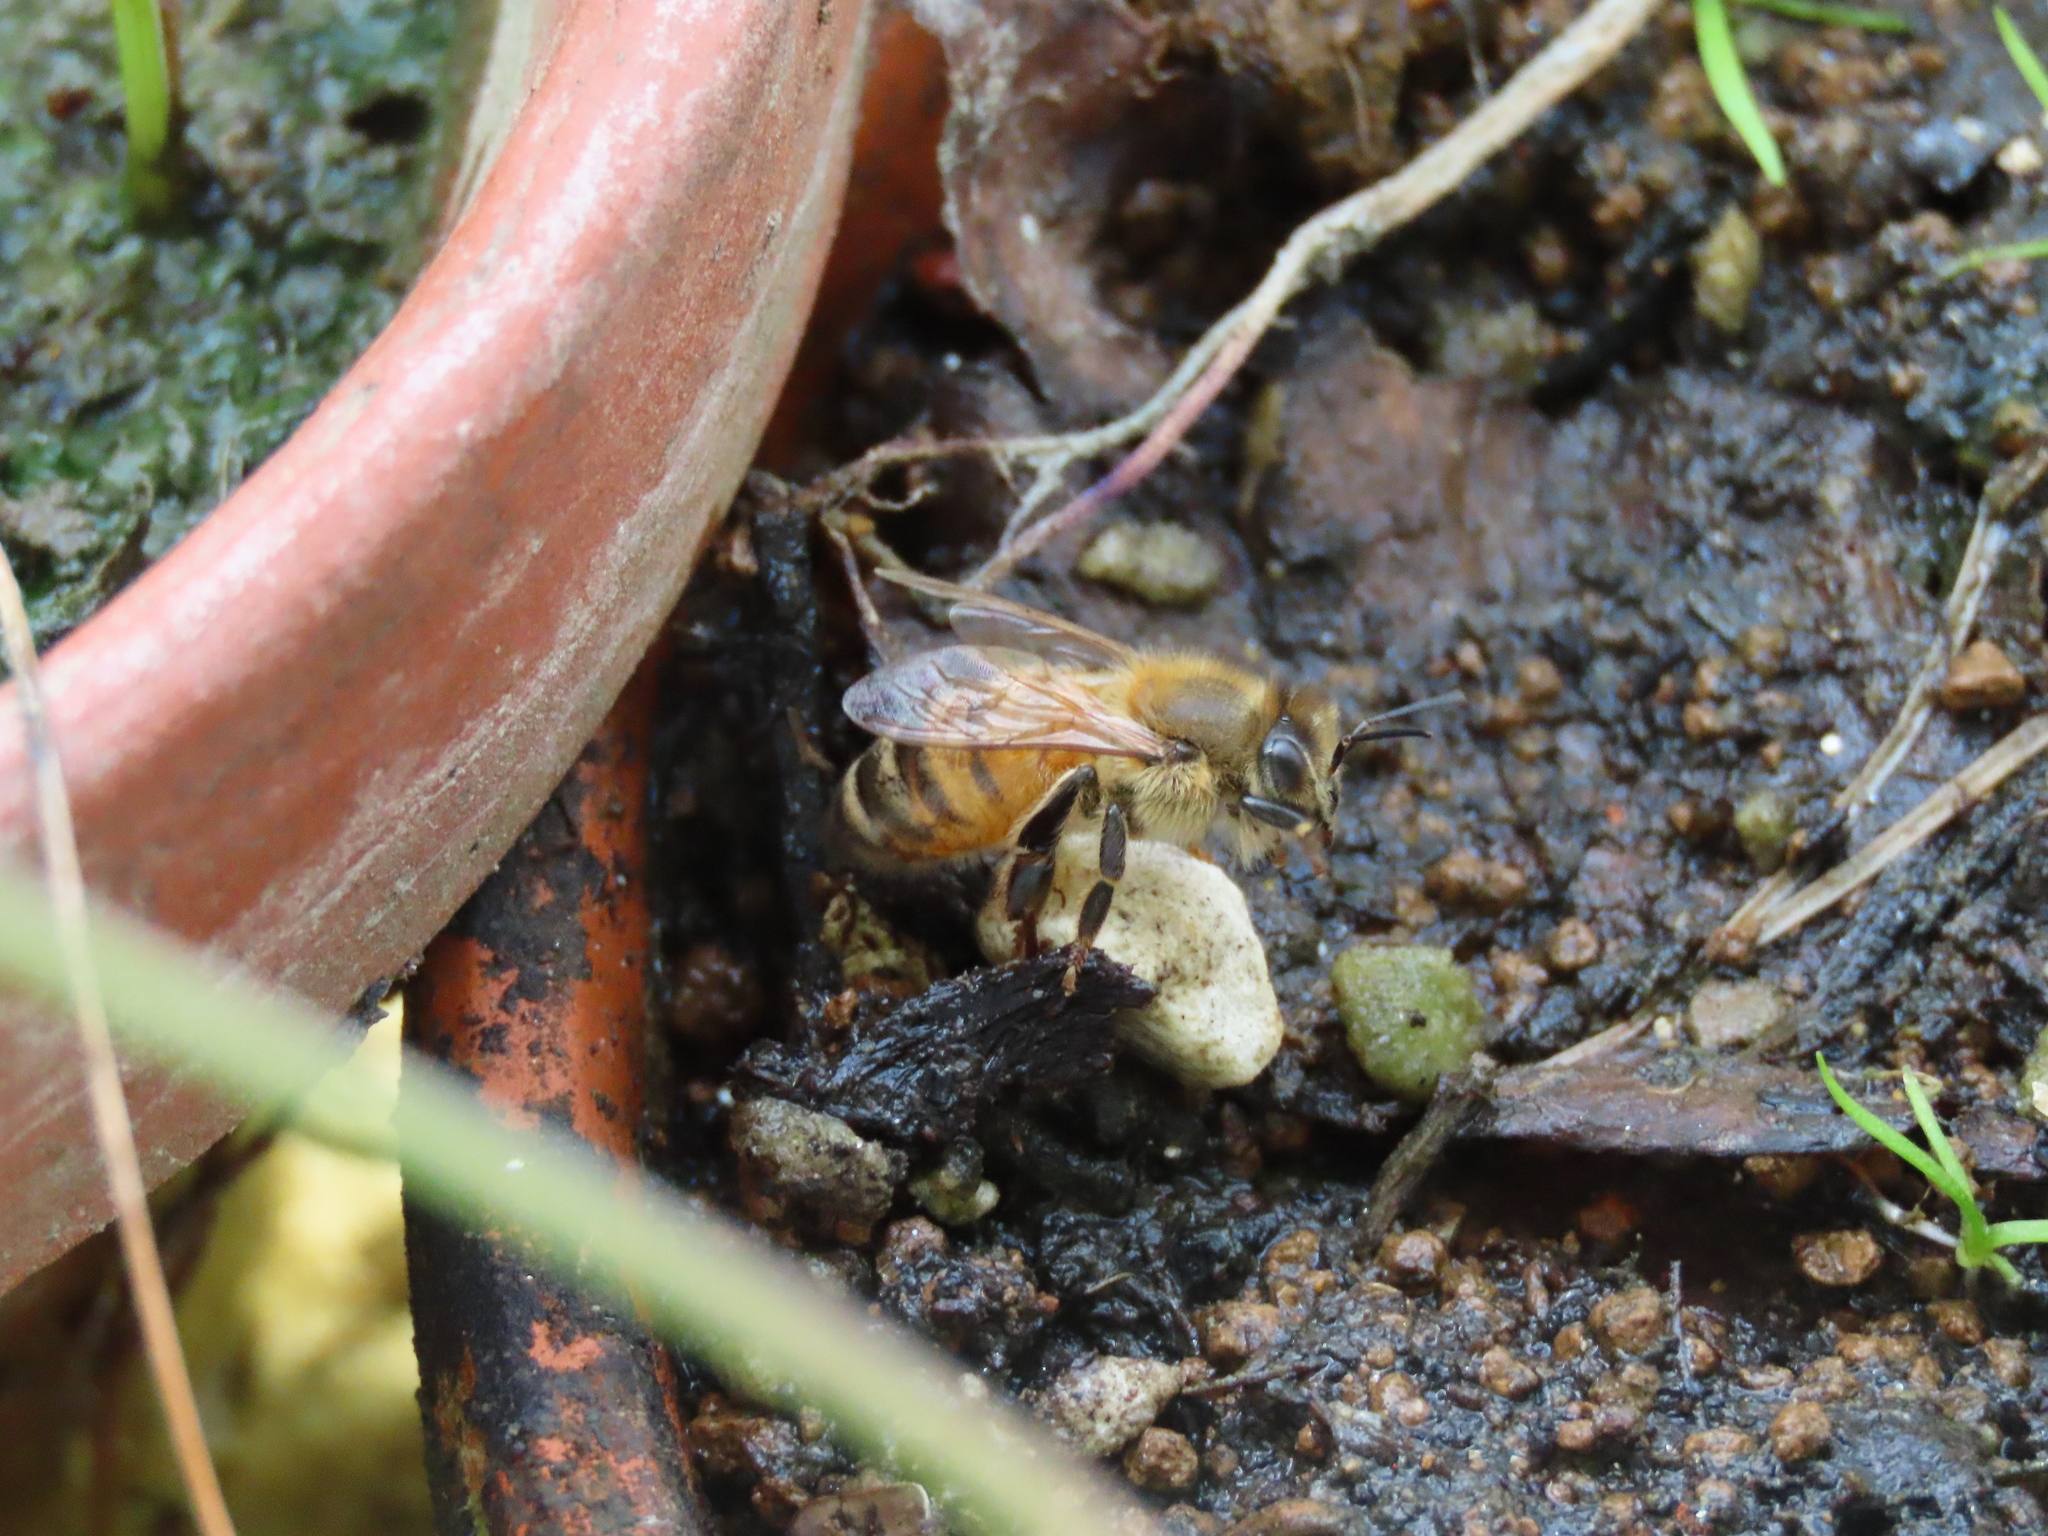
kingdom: Animalia
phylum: Arthropoda
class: Insecta
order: Hymenoptera
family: Apidae
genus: Apis
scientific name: Apis mellifera
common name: Honey bee
